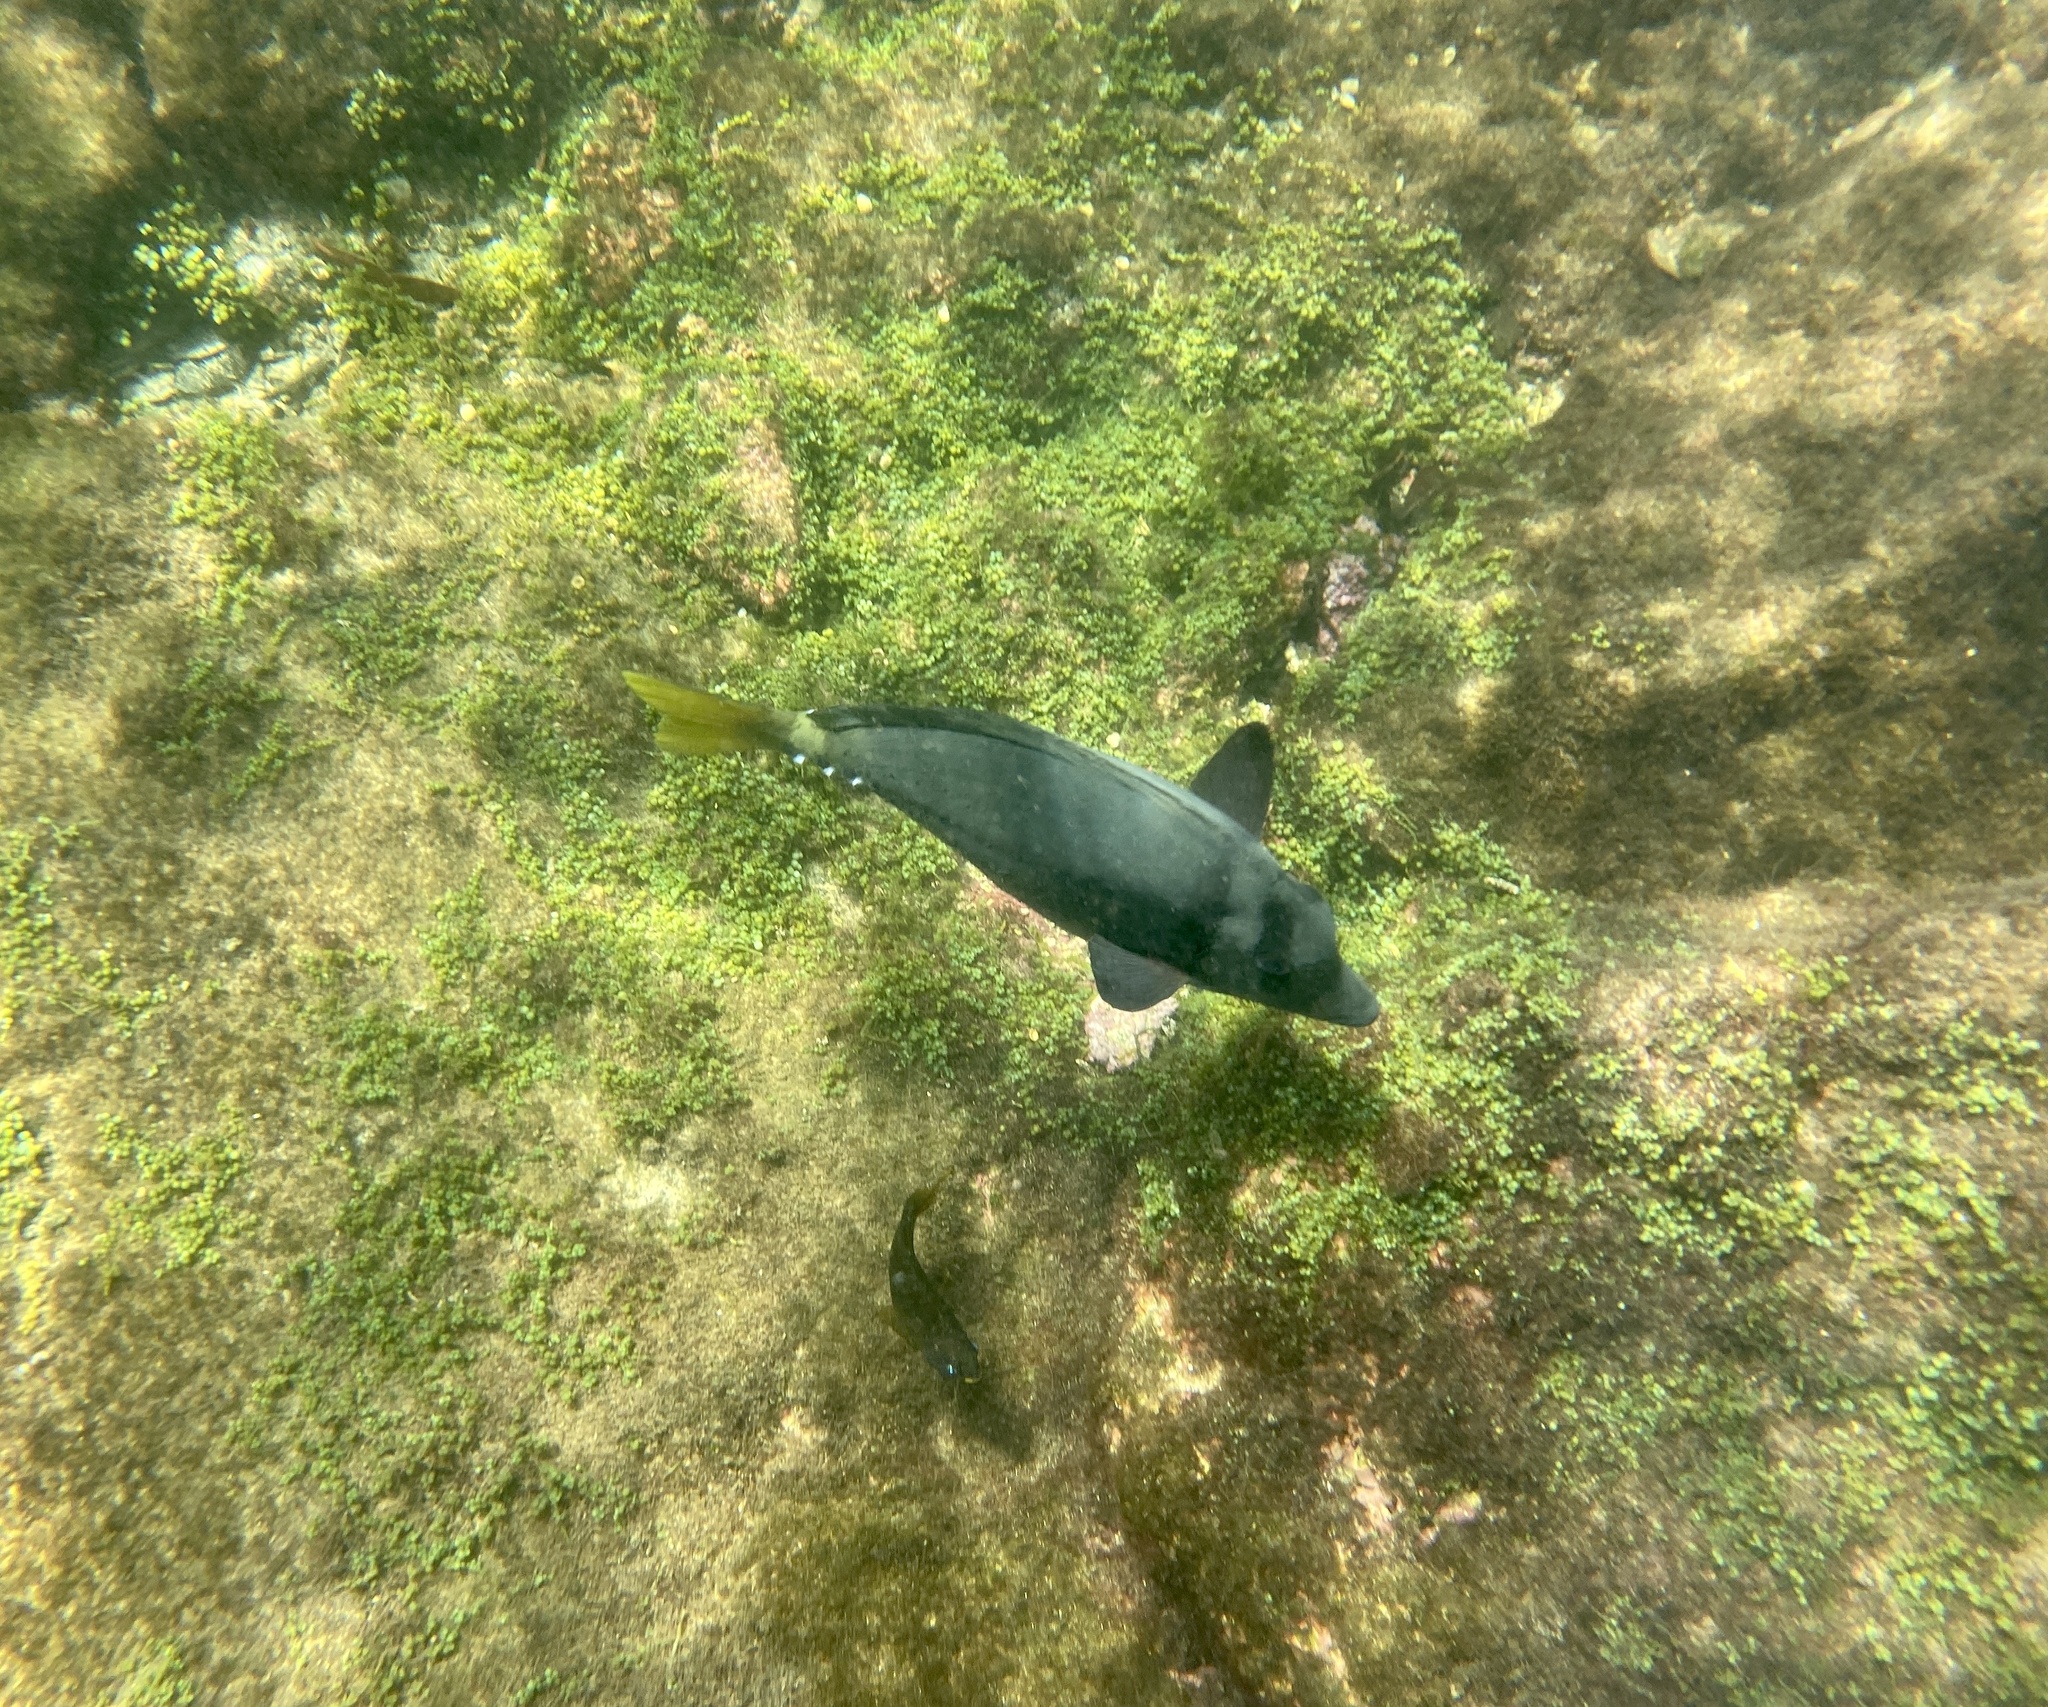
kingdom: Animalia
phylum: Chordata
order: Perciformes
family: Acanthuridae
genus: Prionurus
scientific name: Prionurus laticlavius
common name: Razor surgeonfish
